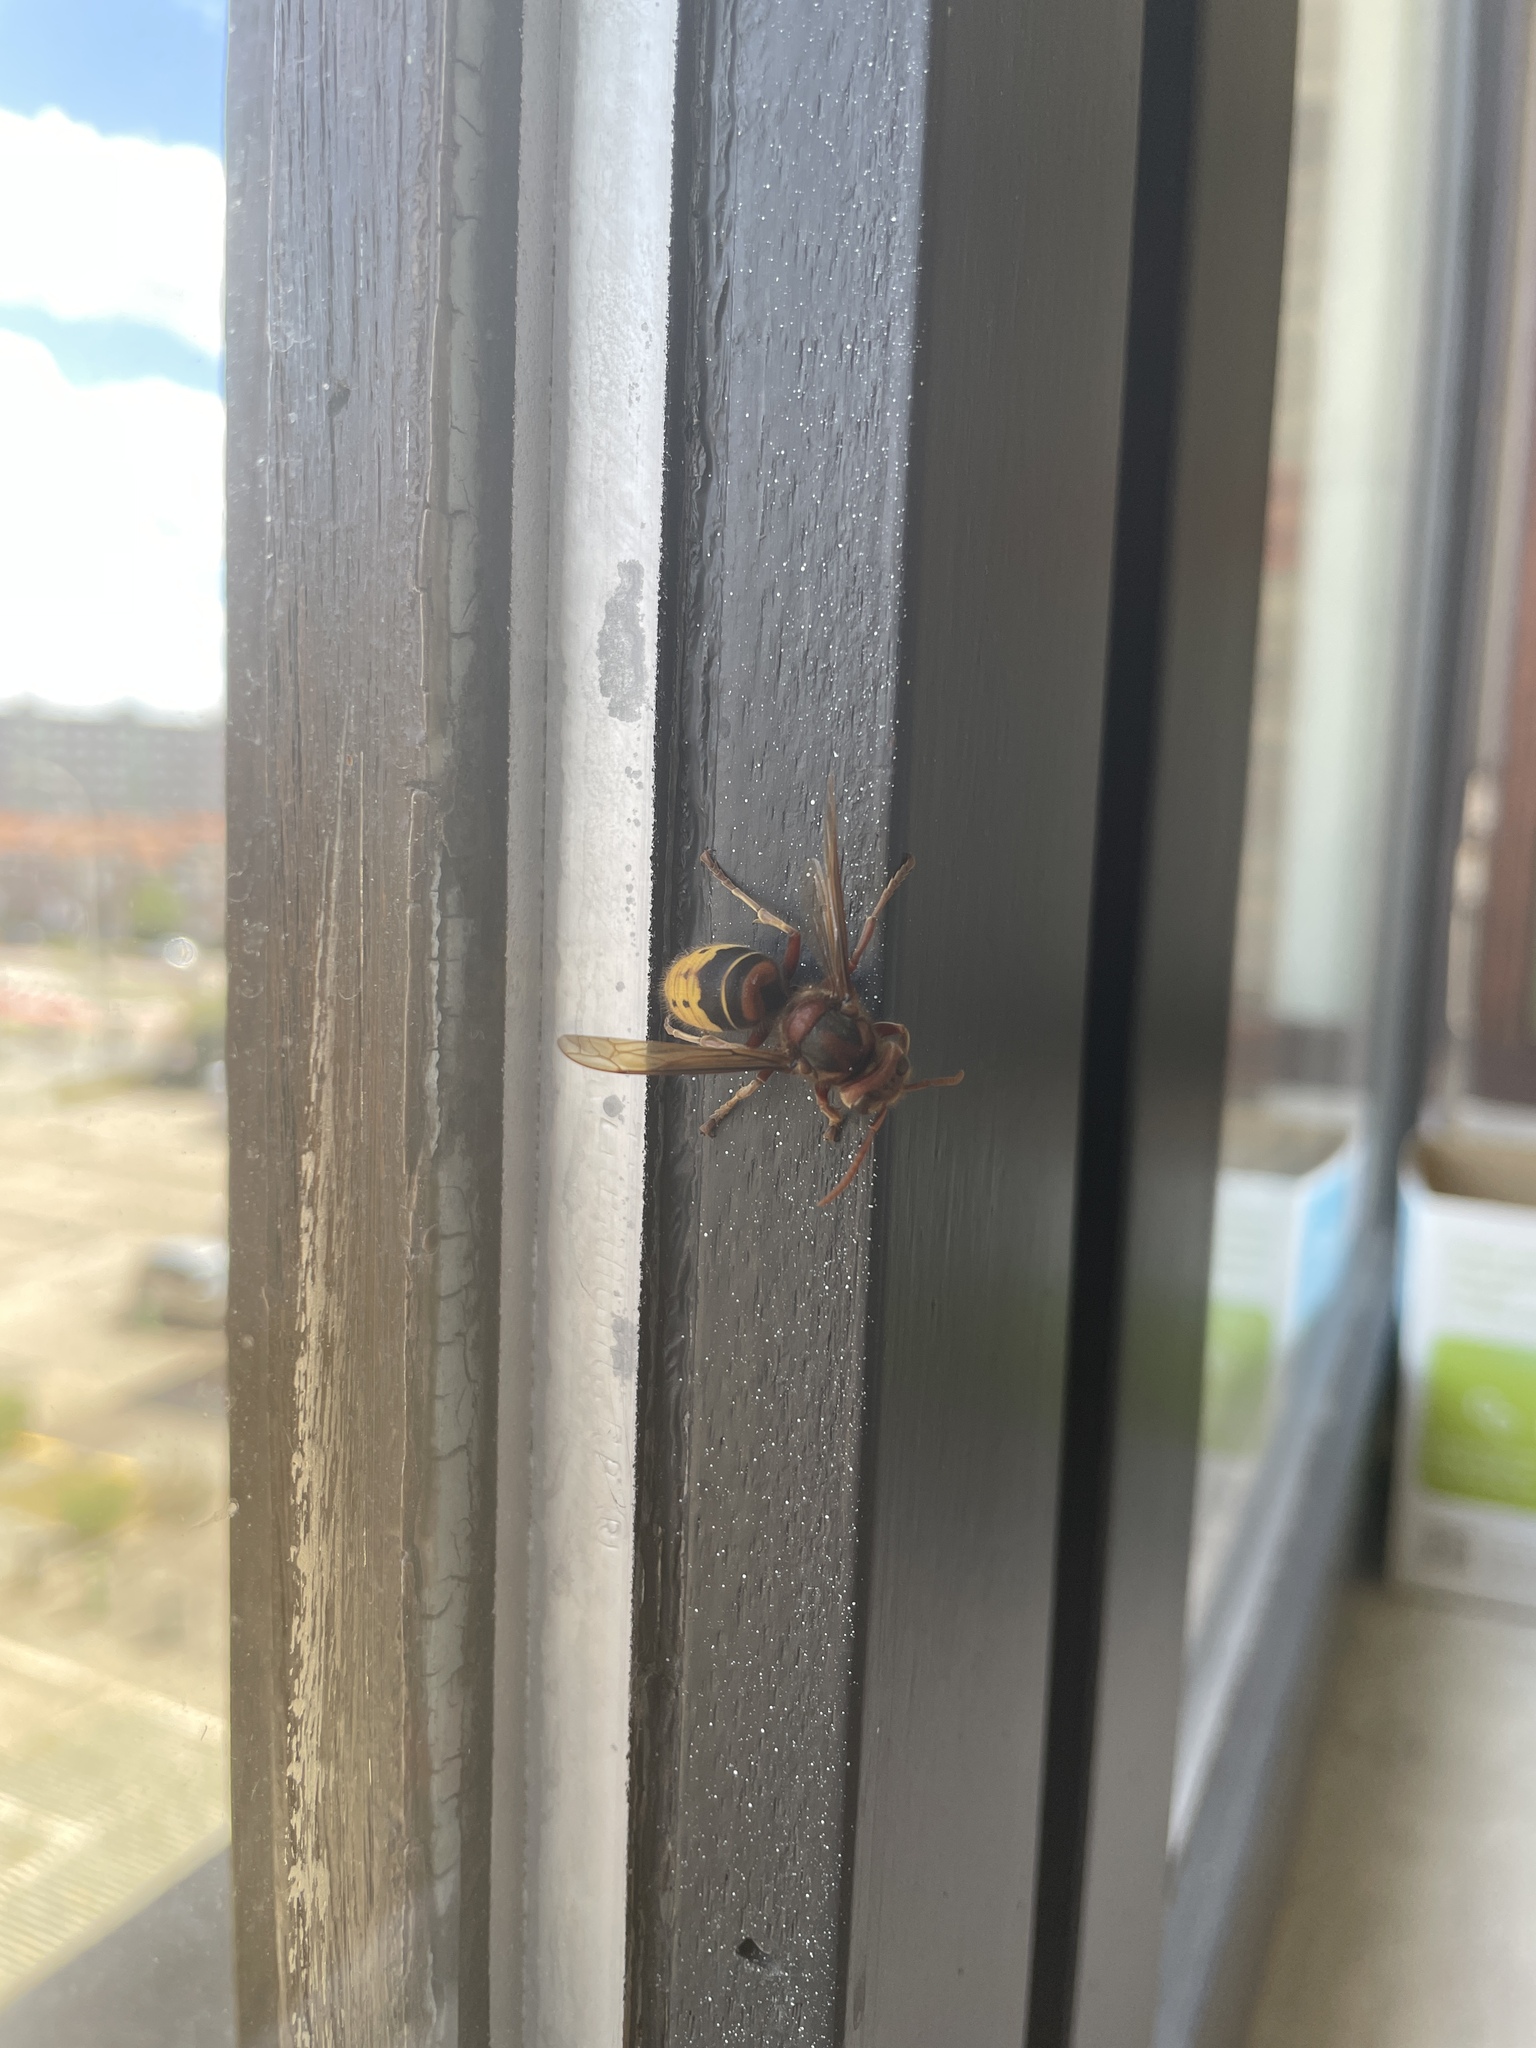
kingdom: Animalia
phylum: Arthropoda
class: Insecta
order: Hymenoptera
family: Vespidae
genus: Vespa
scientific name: Vespa crabro
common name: Hornet
